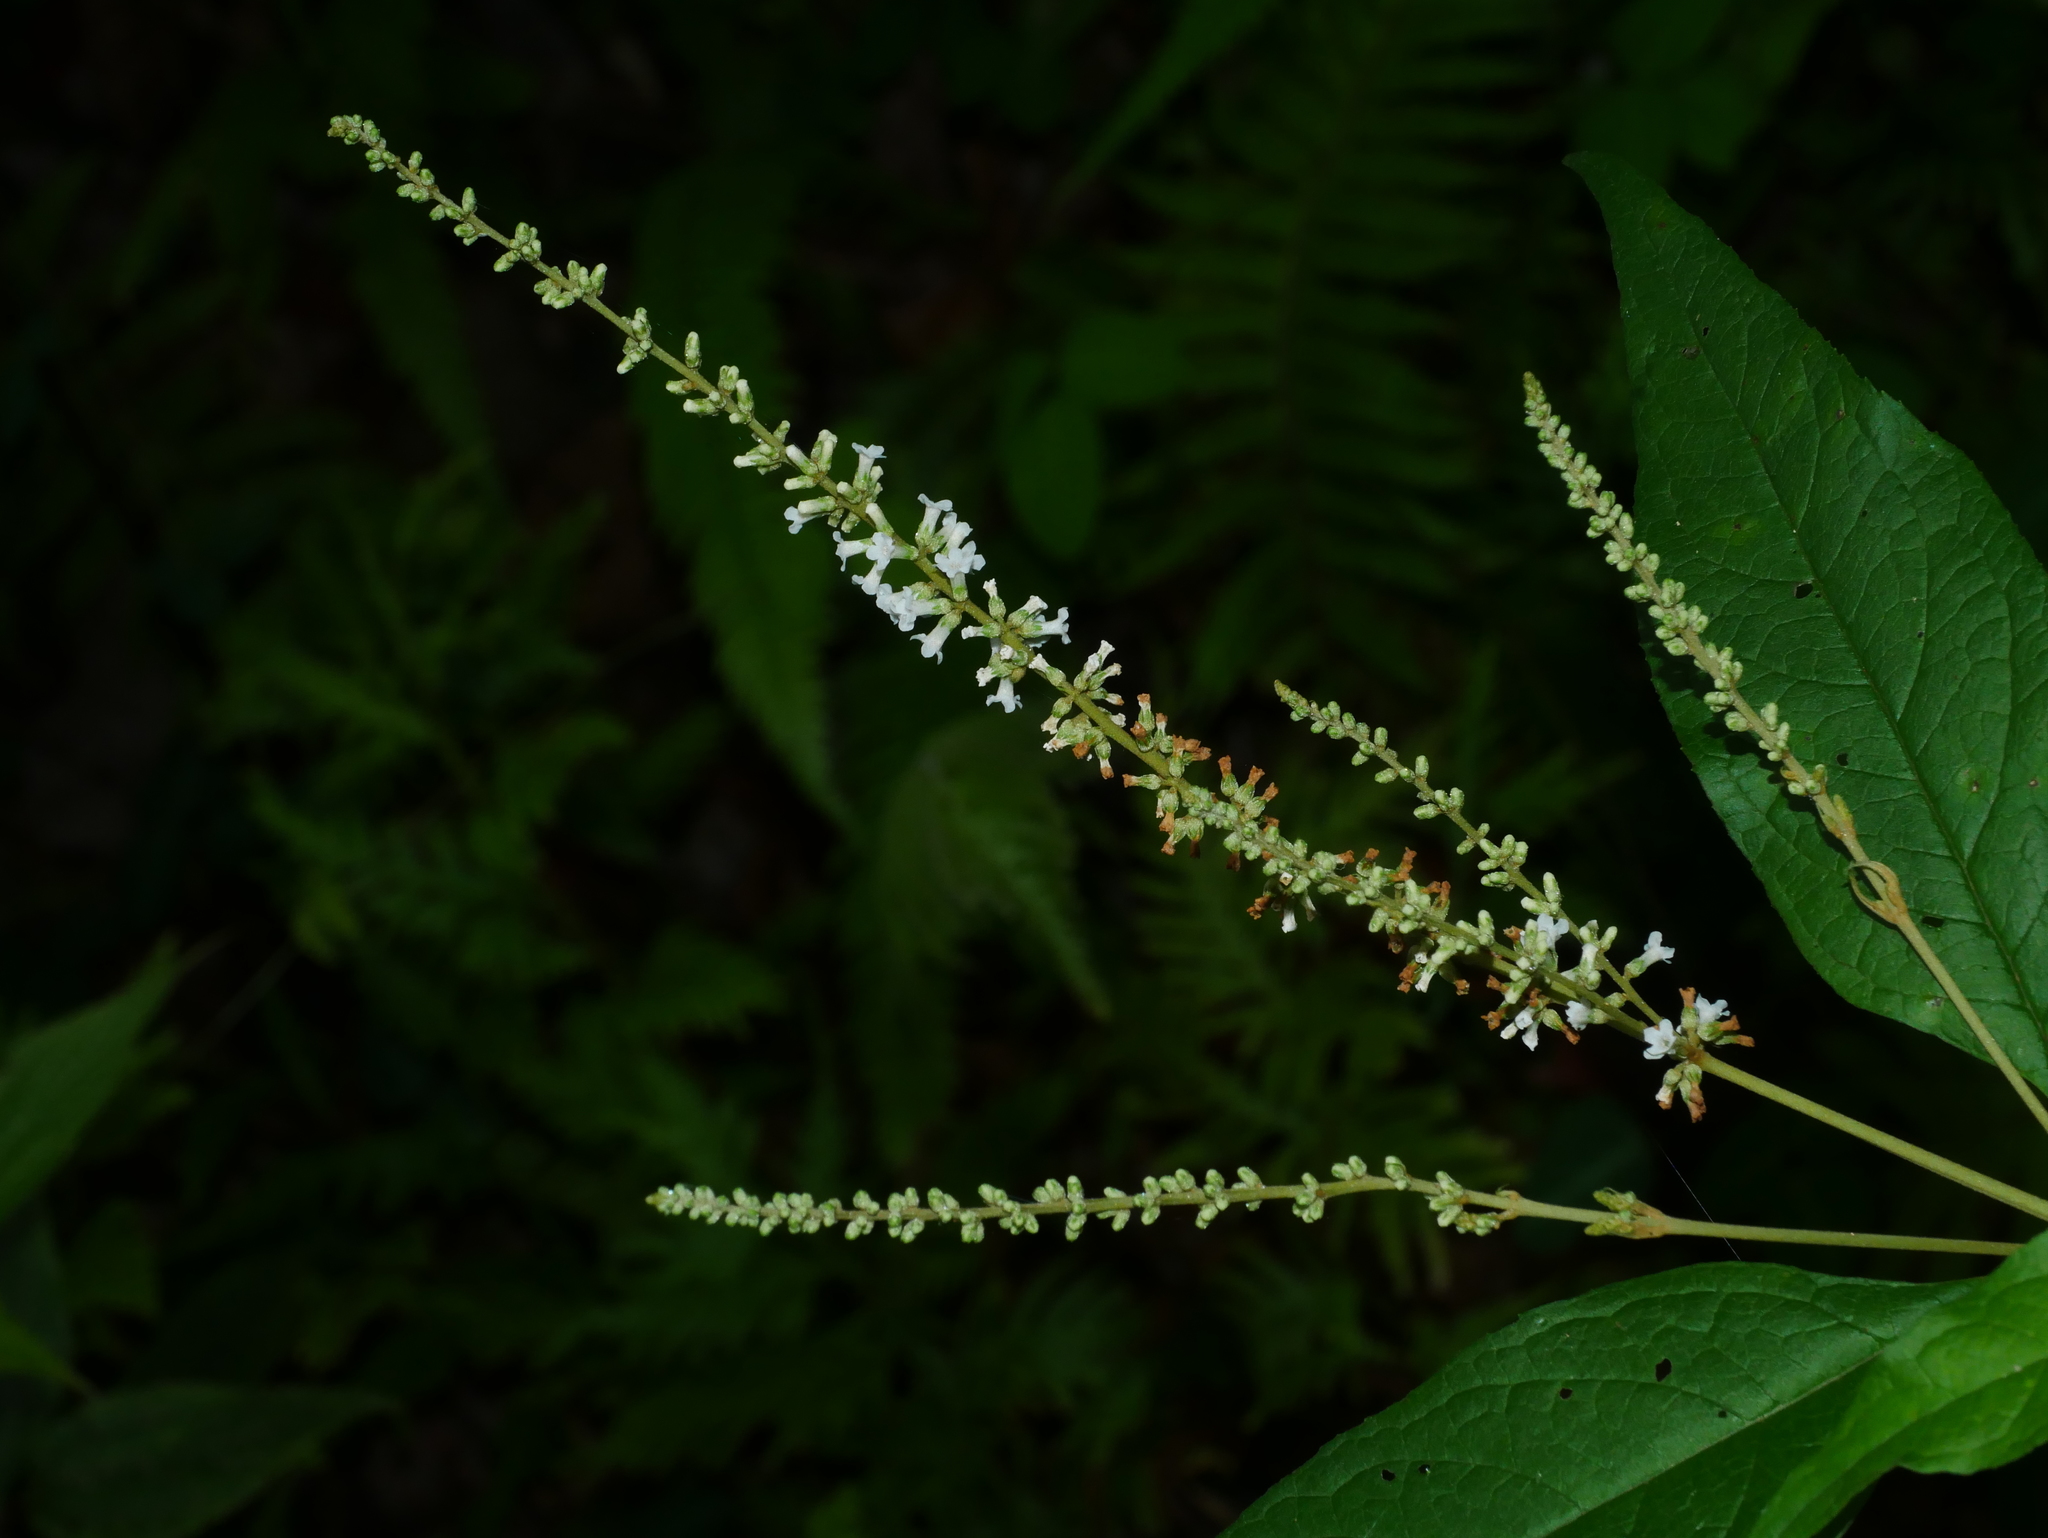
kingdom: Plantae
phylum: Tracheophyta
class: Magnoliopsida
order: Lamiales
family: Scrophulariaceae
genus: Buddleja
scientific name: Buddleja asiatica
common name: Dog tail
